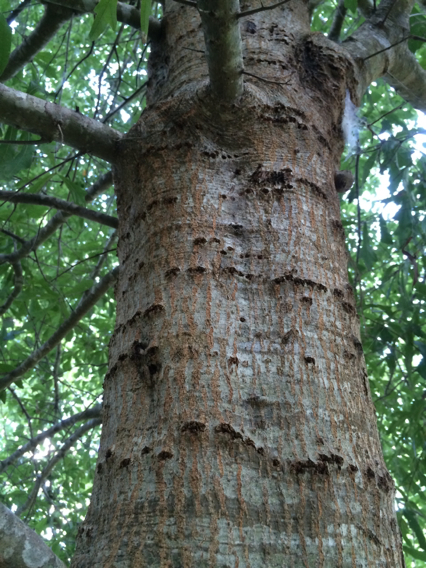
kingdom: Plantae
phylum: Tracheophyta
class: Magnoliopsida
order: Fagales
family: Fagaceae
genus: Quercus
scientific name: Quercus nigra
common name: Water oak
